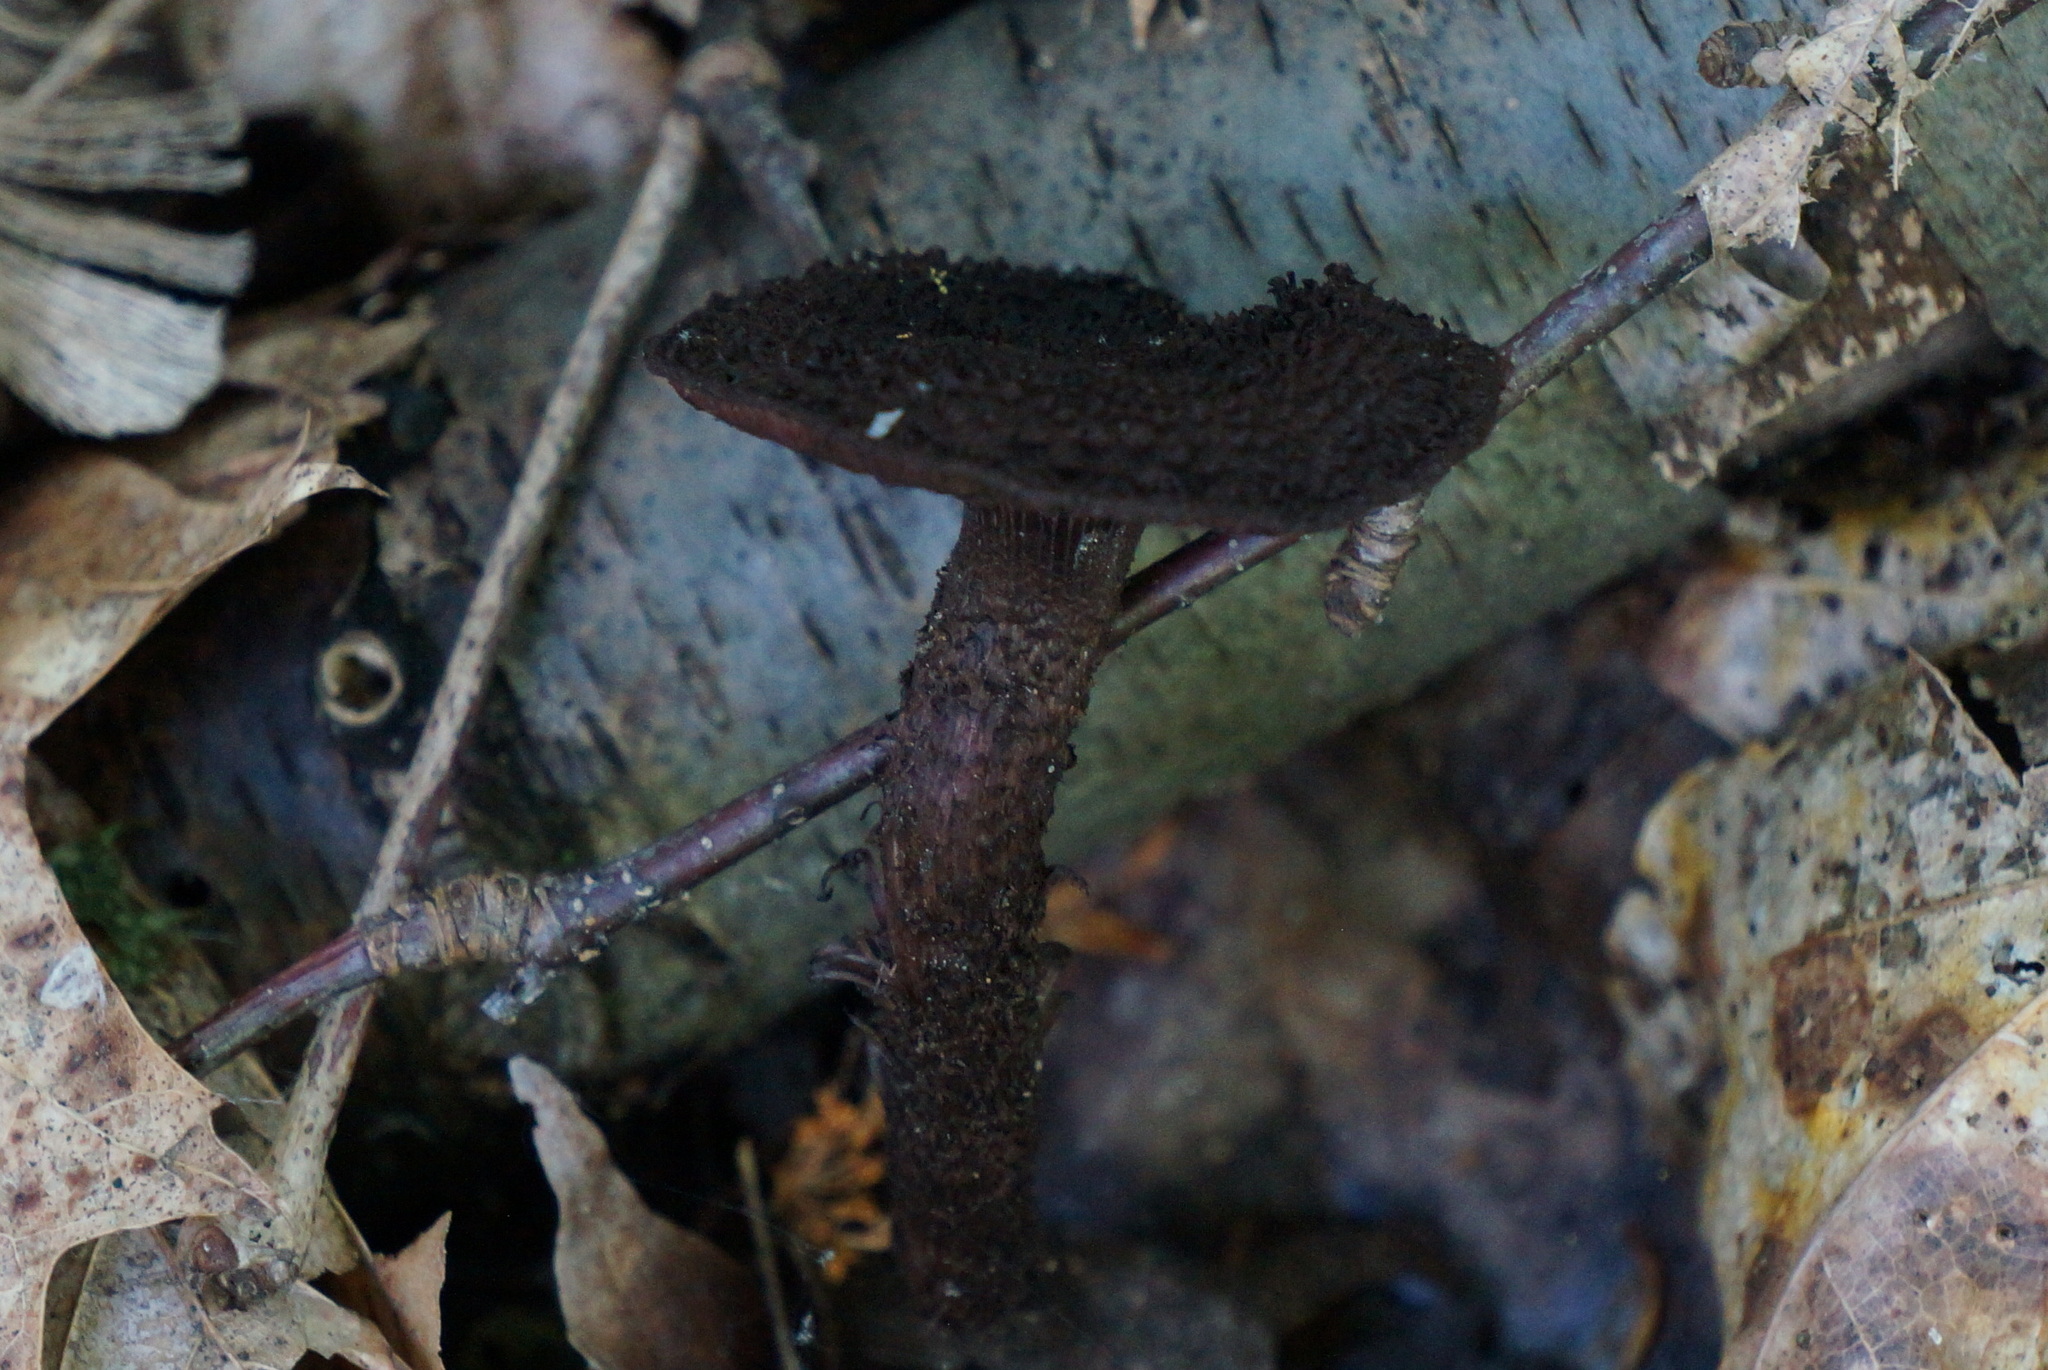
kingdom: Fungi
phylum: Basidiomycota
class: Agaricomycetes
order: Agaricales
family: Inocybaceae
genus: Inocybe
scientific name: Inocybe tahquamenonensis
